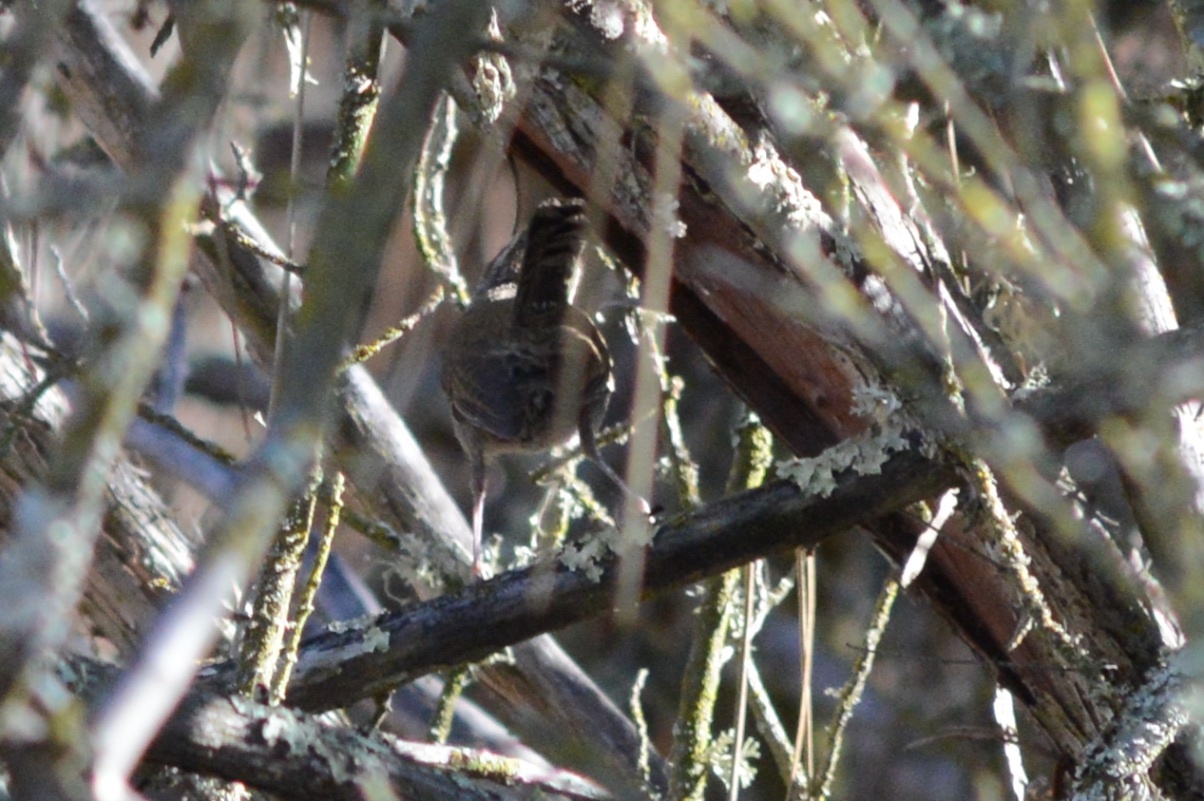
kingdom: Animalia
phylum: Chordata
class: Aves
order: Passeriformes
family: Troglodytidae
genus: Thryomanes
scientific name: Thryomanes bewickii
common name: Bewick's wren
